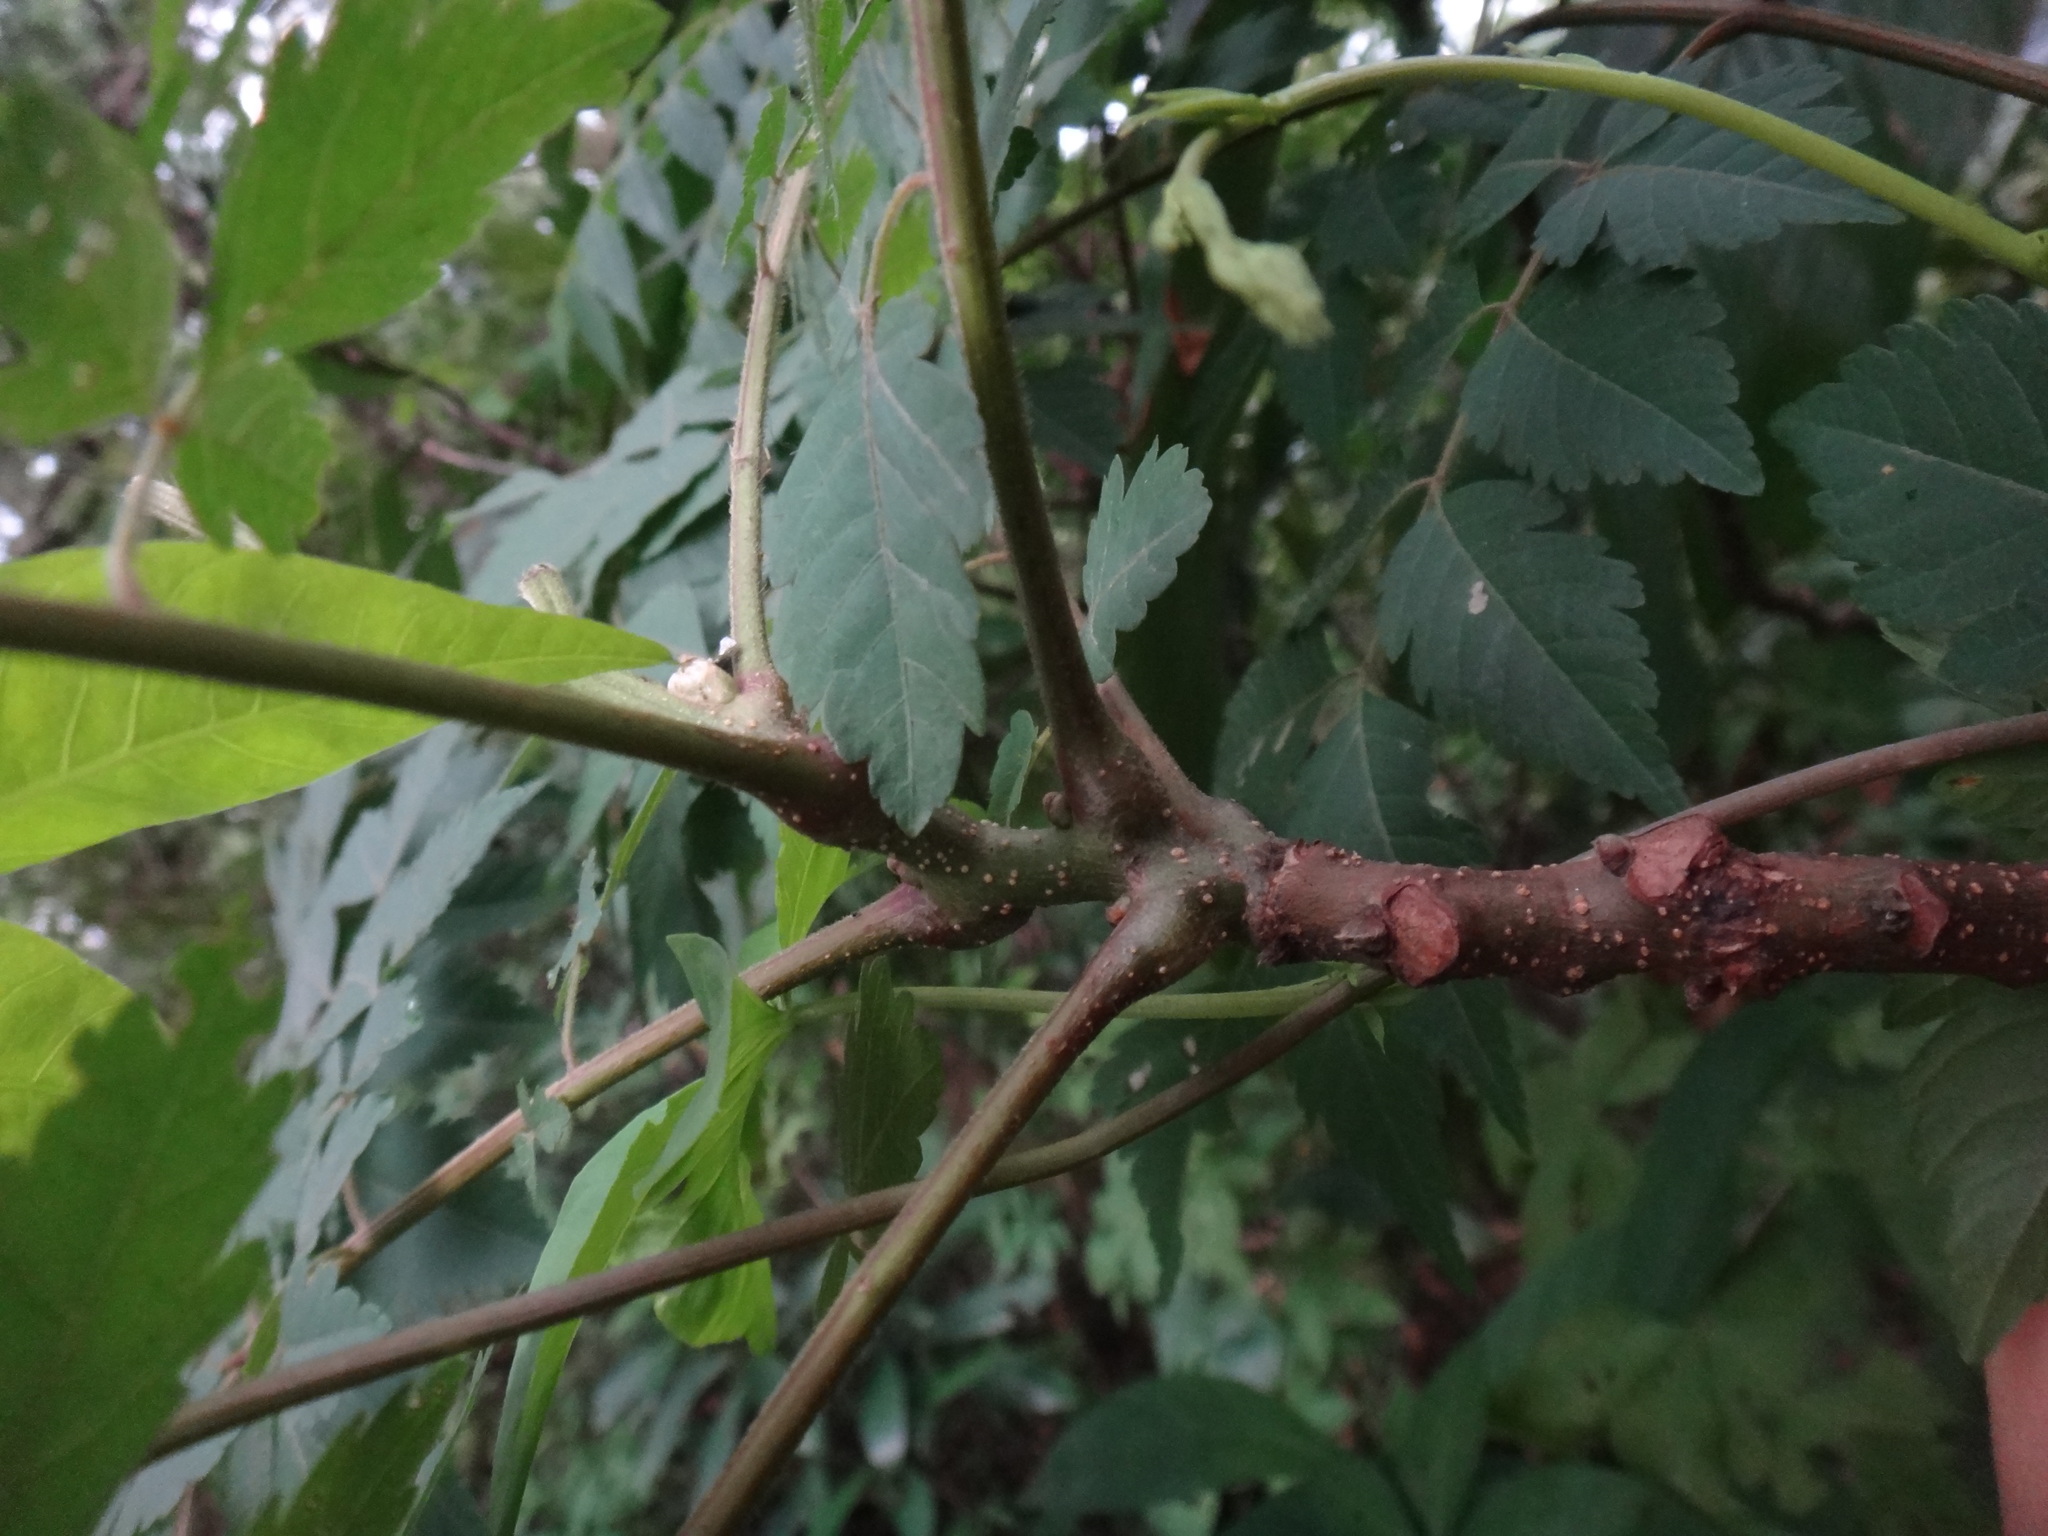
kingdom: Plantae
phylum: Tracheophyta
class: Magnoliopsida
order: Sapindales
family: Sapindaceae
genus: Koelreuteria
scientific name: Koelreuteria elegans
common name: Chinese flame tree
